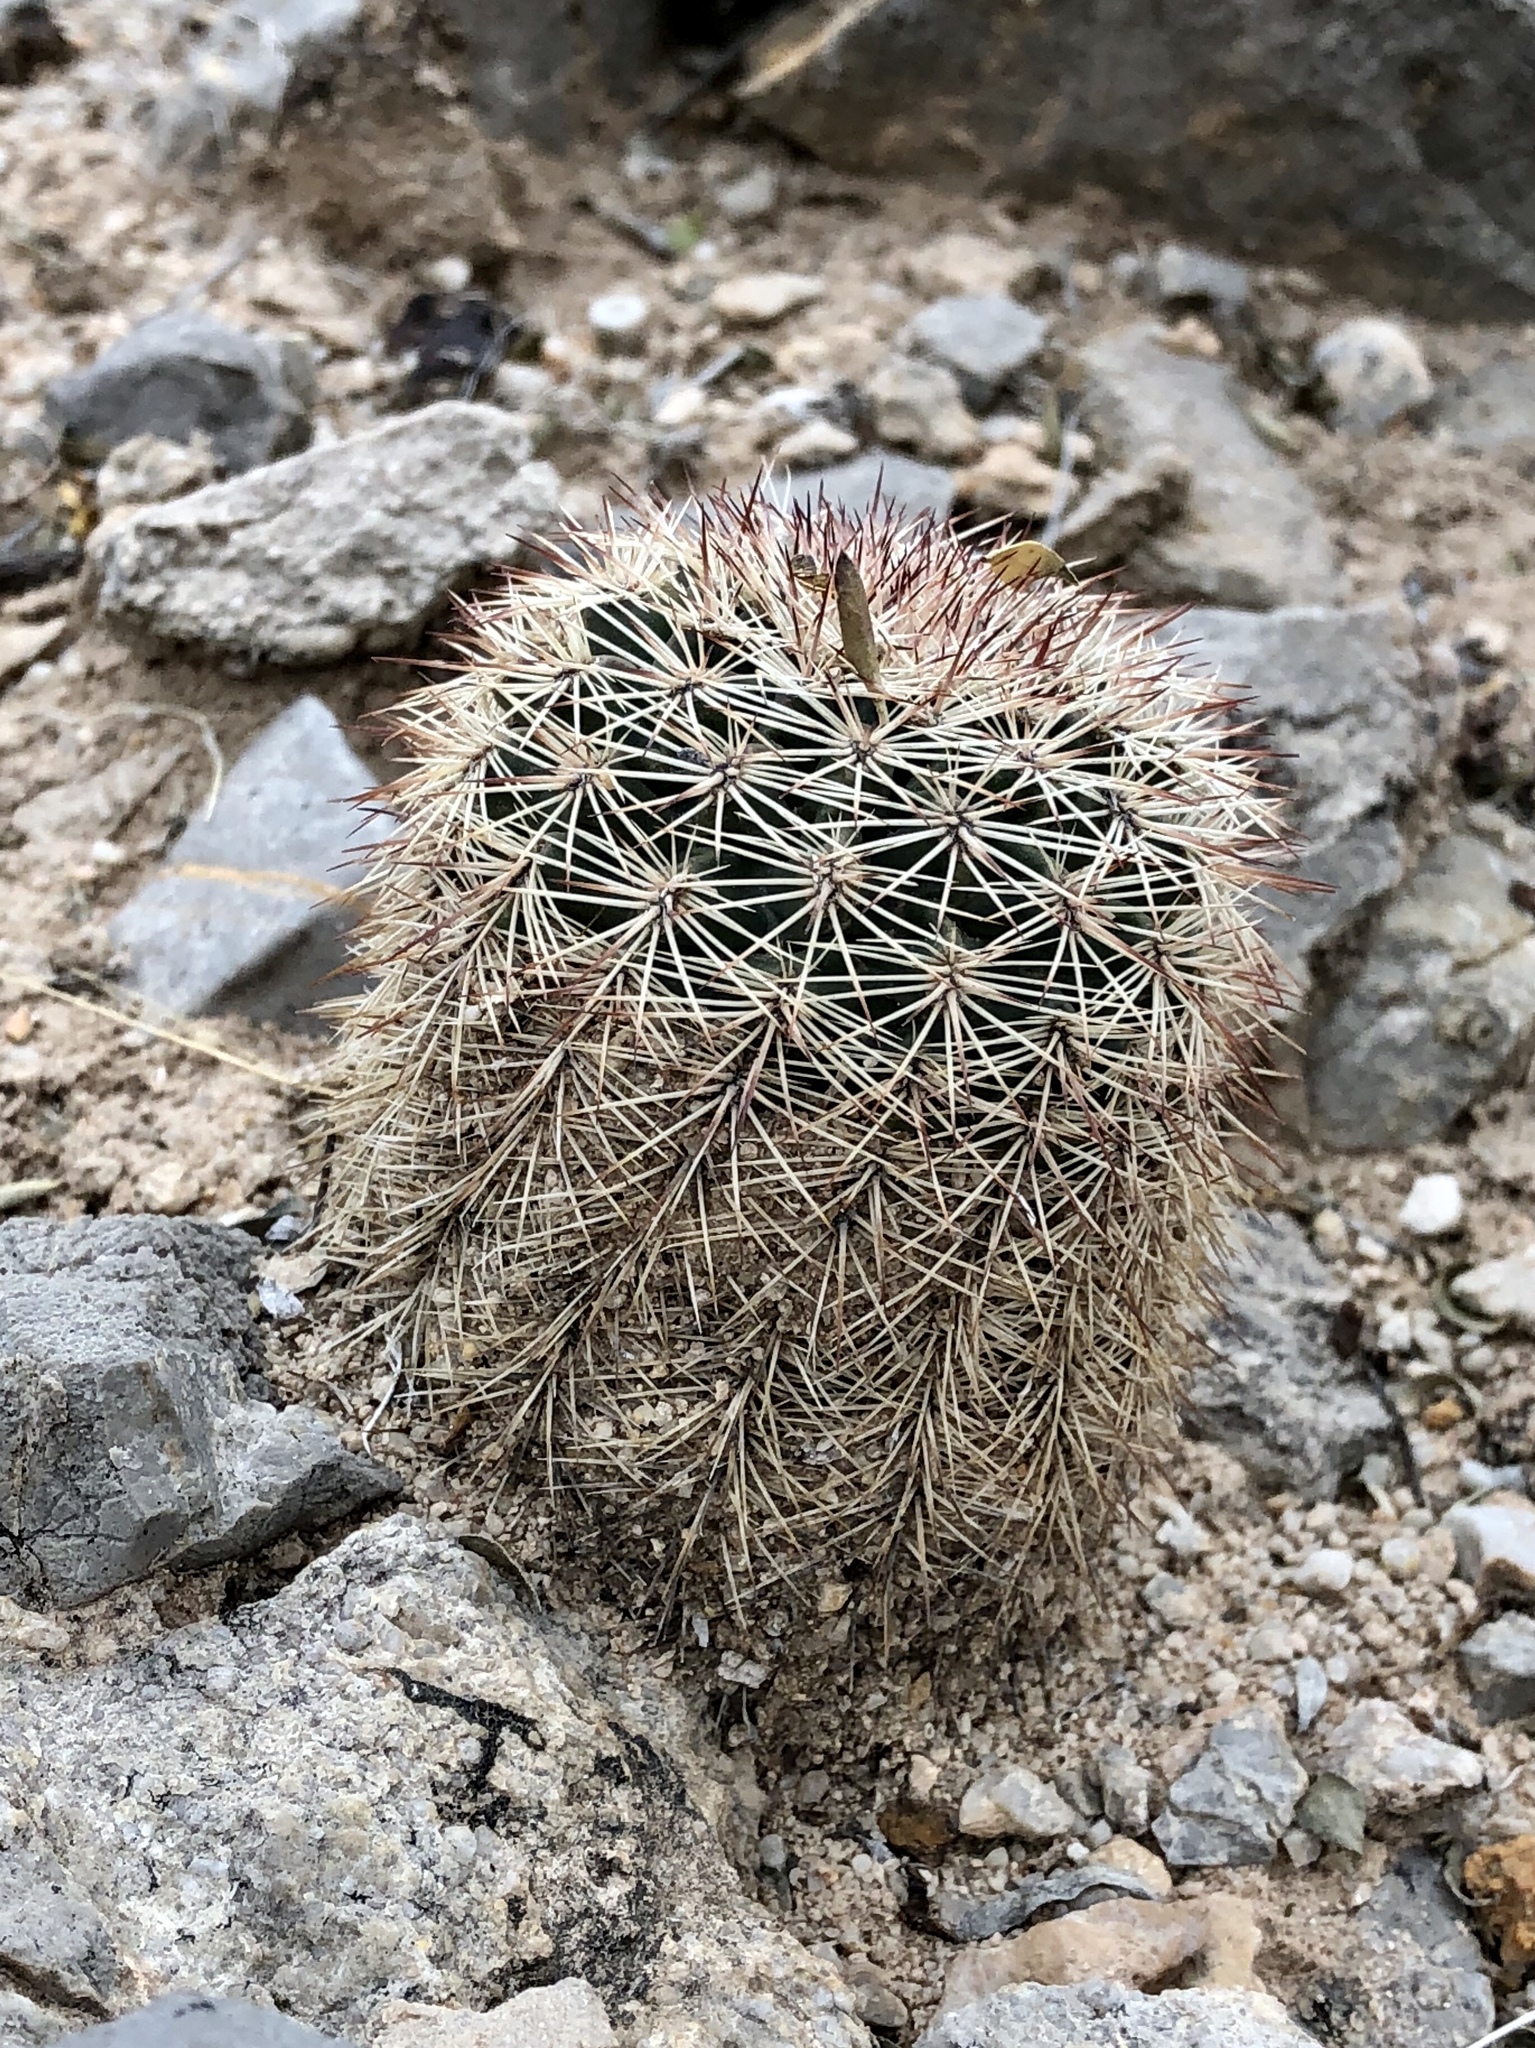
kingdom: Plantae
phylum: Tracheophyta
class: Magnoliopsida
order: Caryophyllales
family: Cactaceae
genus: Echinocereus
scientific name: Echinocereus dasyacanthus
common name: Spiny hedgehog cactus
